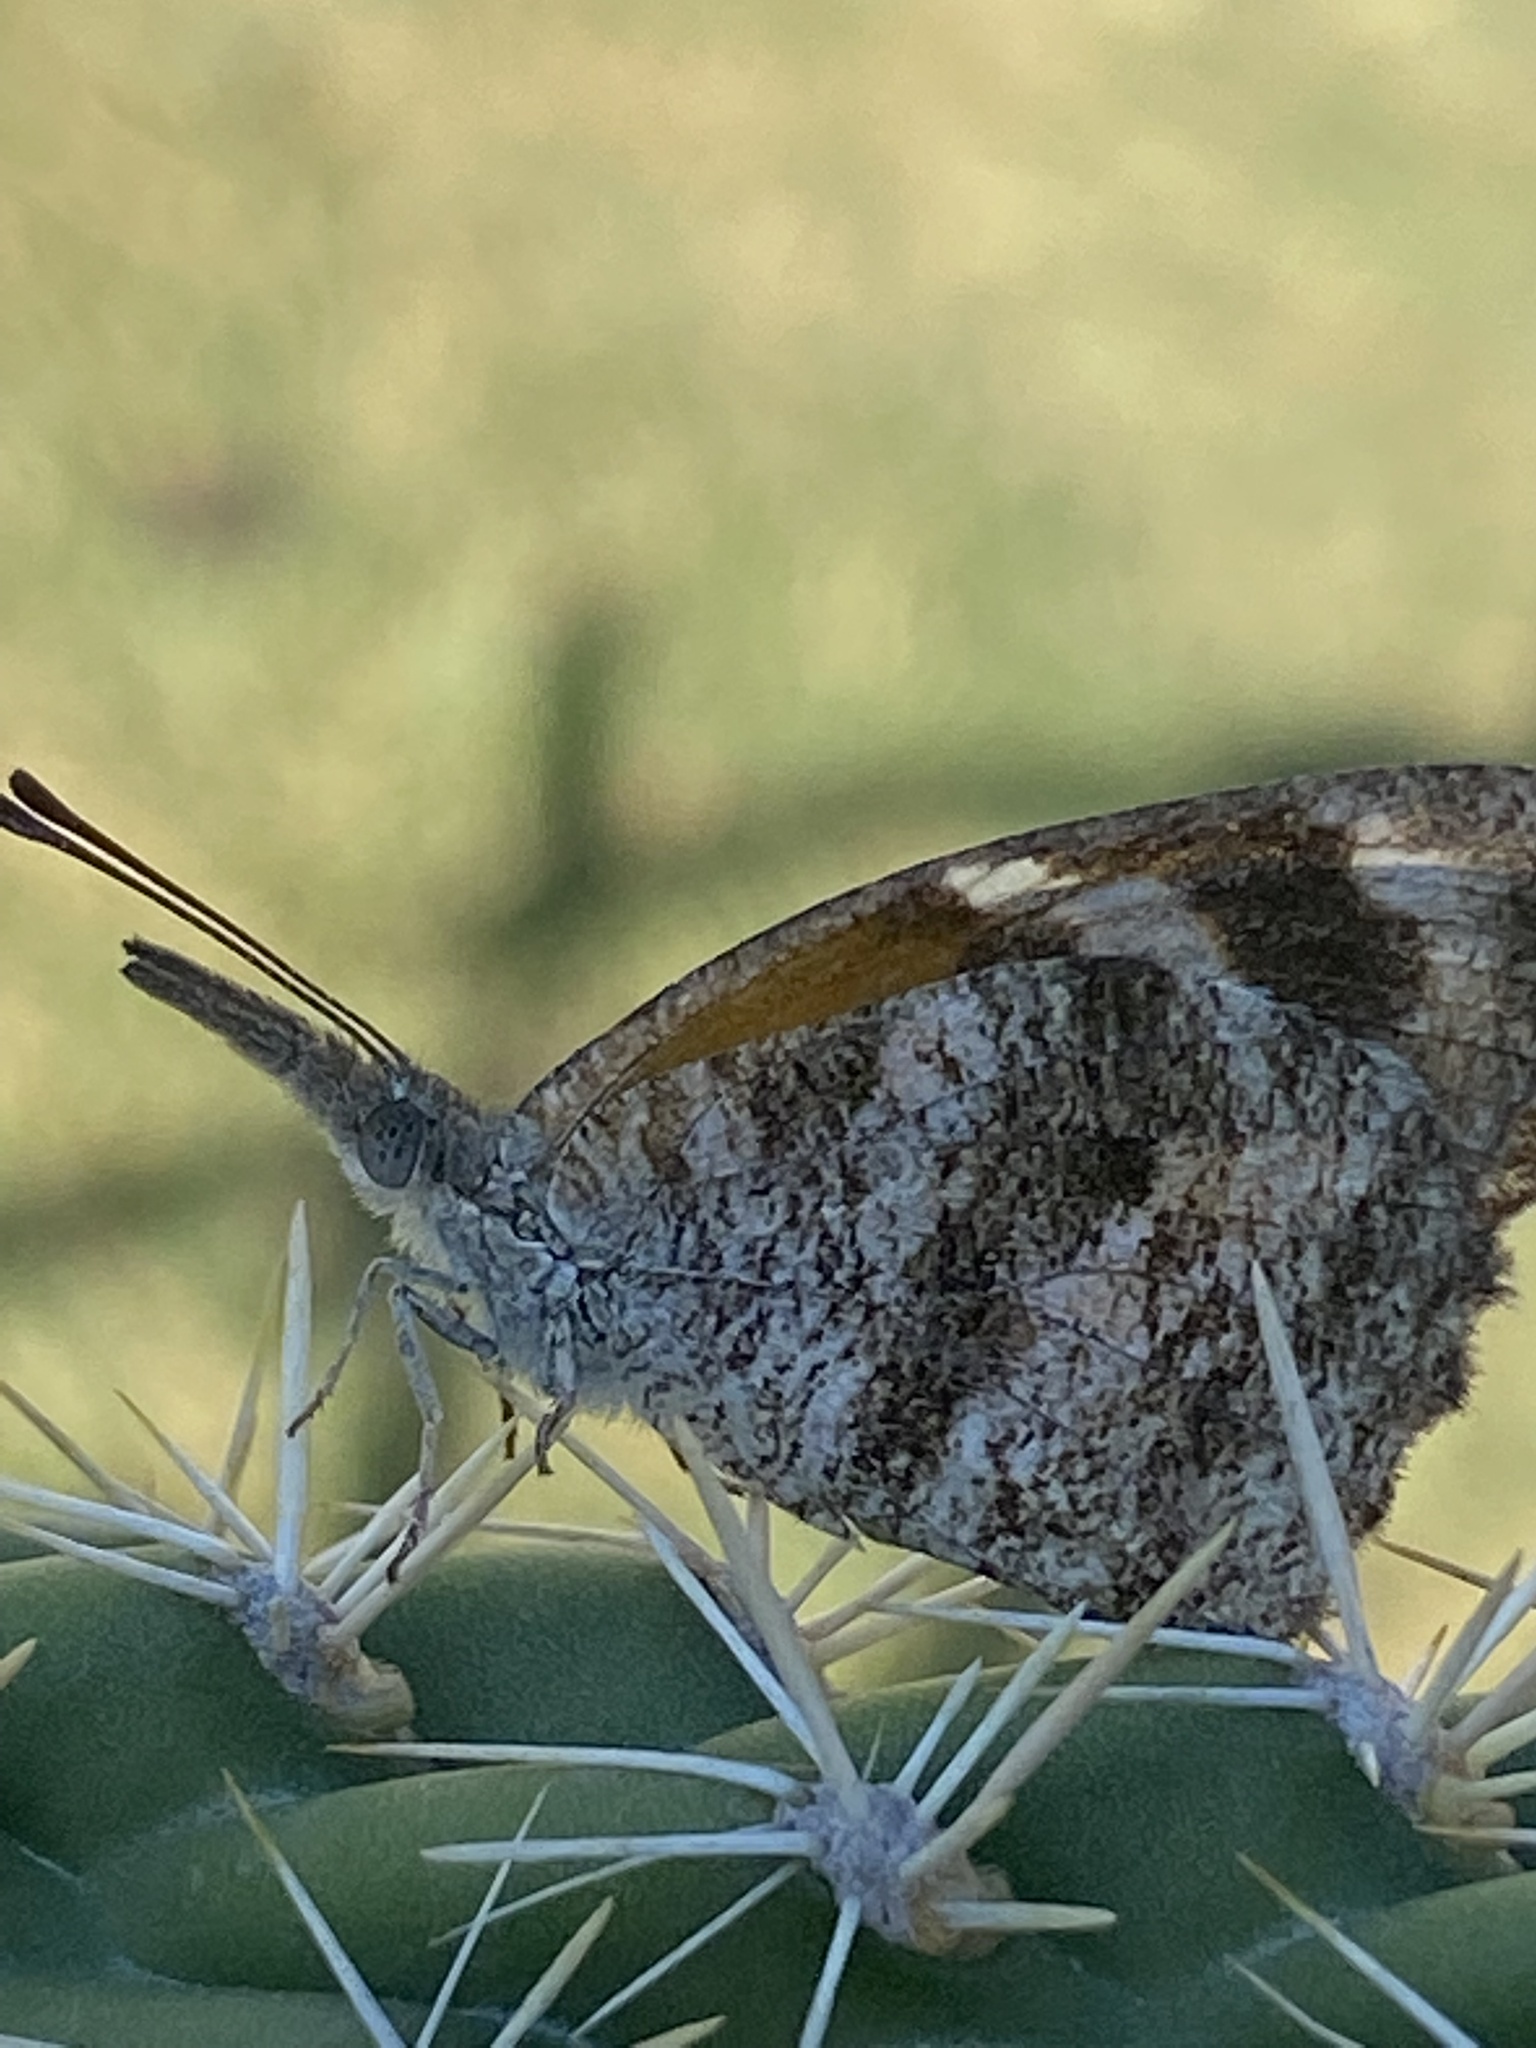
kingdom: Animalia
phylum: Arthropoda
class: Insecta
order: Lepidoptera
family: Nymphalidae
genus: Libytheana
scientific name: Libytheana carinenta
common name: American snout
